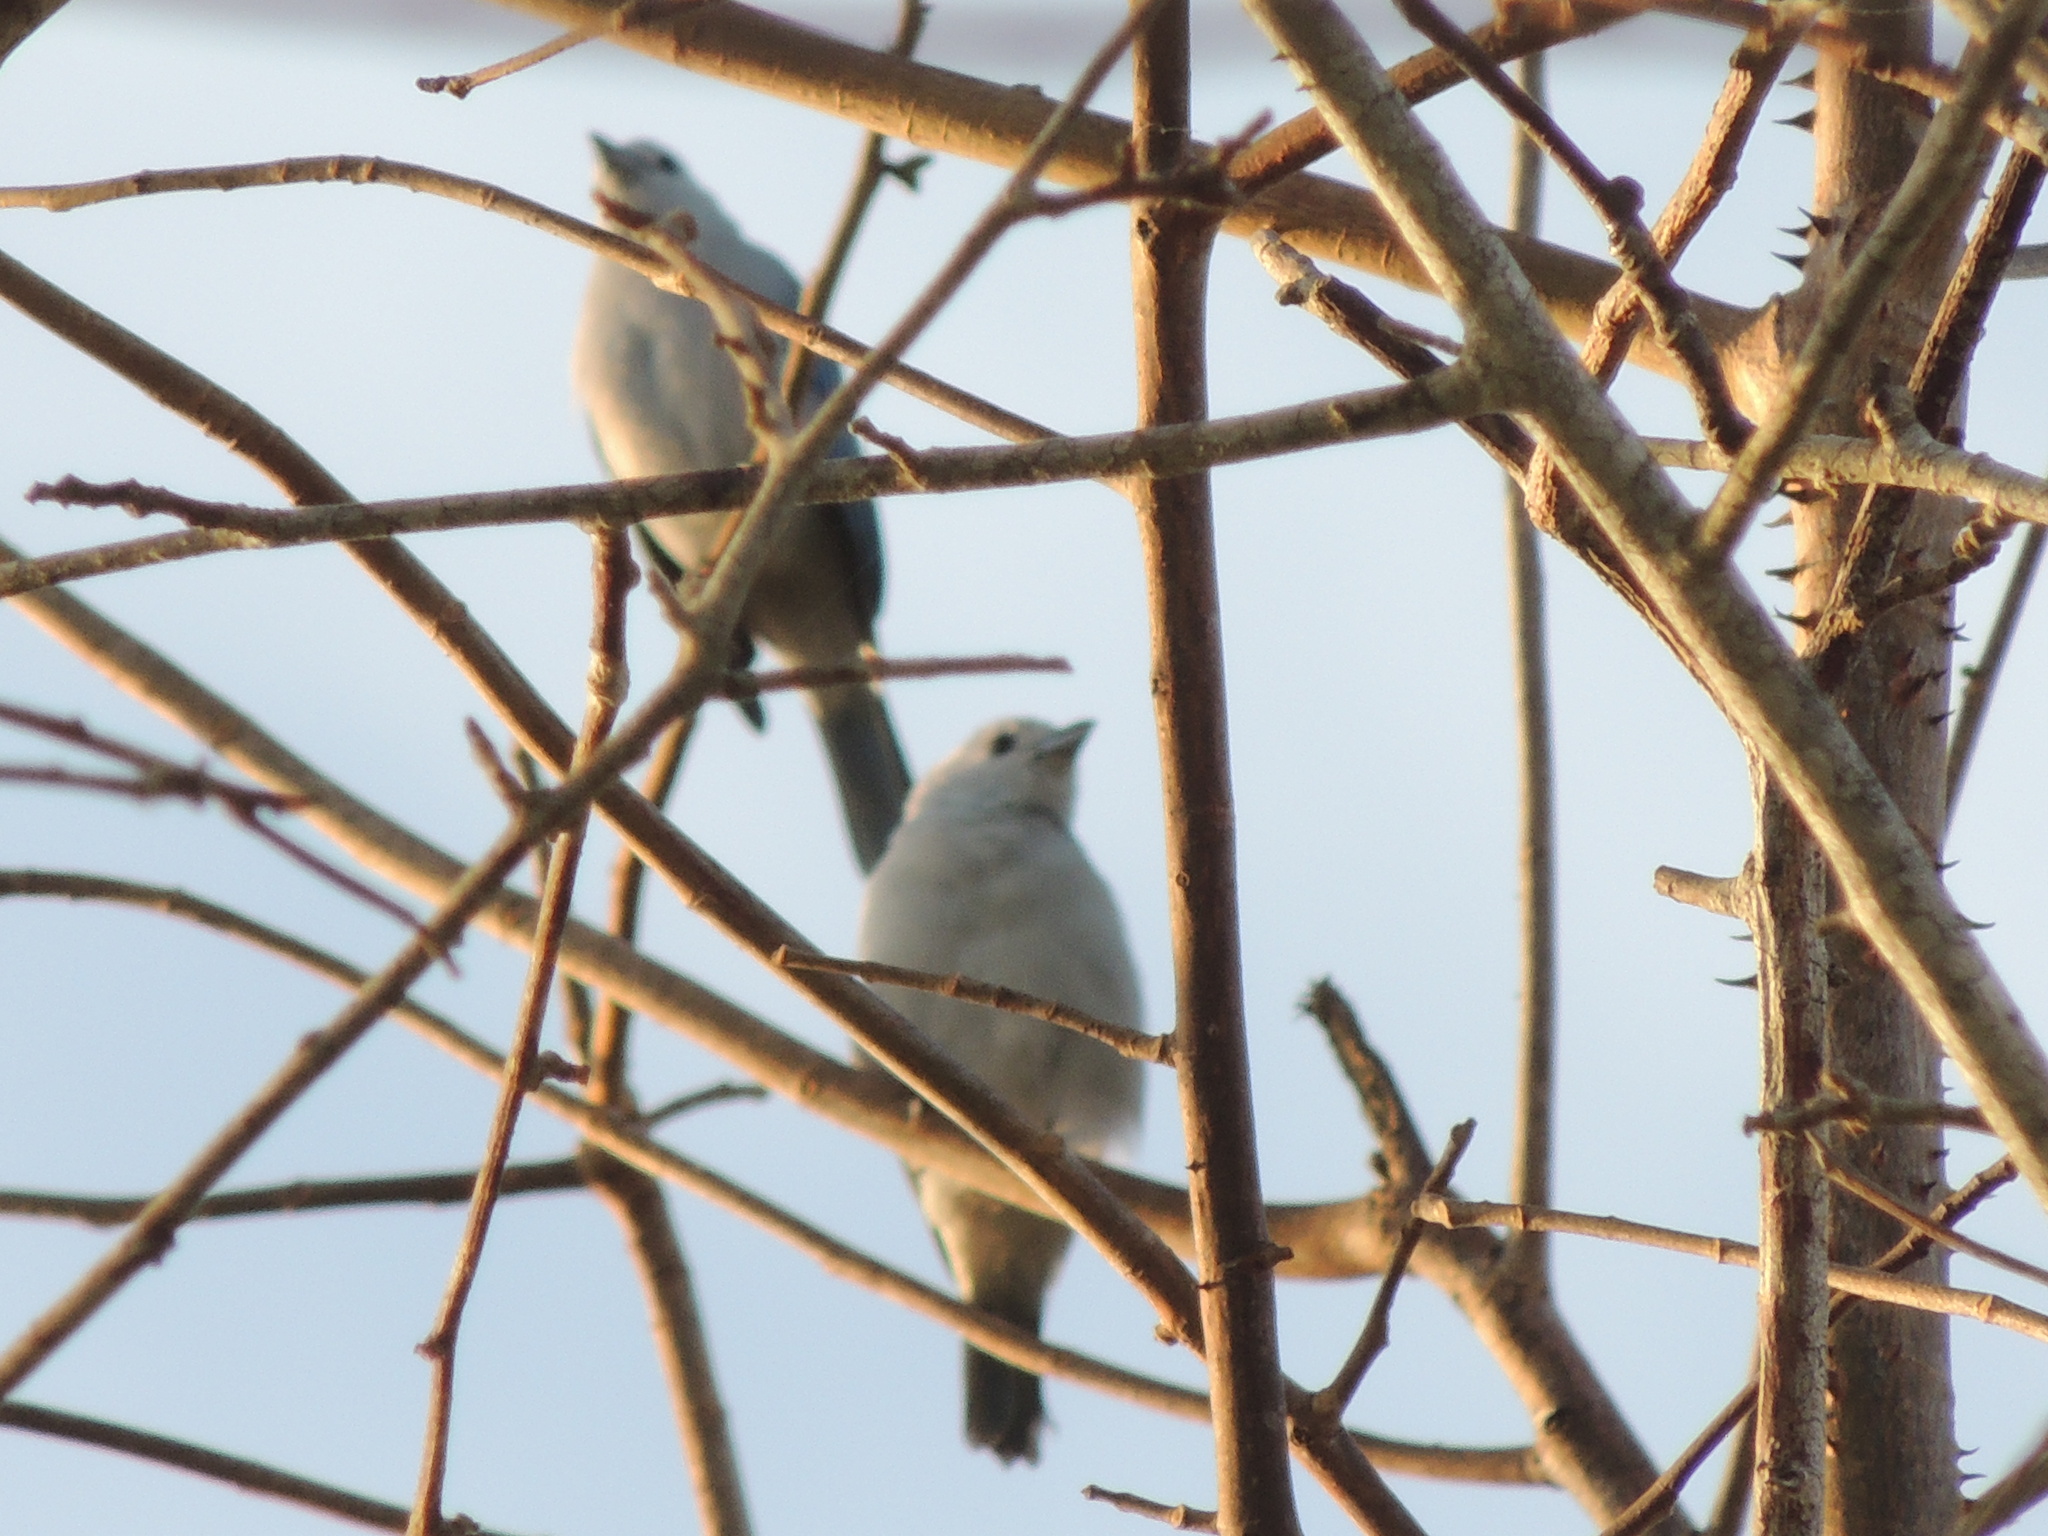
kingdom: Animalia
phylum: Chordata
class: Aves
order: Passeriformes
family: Thraupidae
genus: Thraupis
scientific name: Thraupis episcopus
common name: Blue-grey tanager
